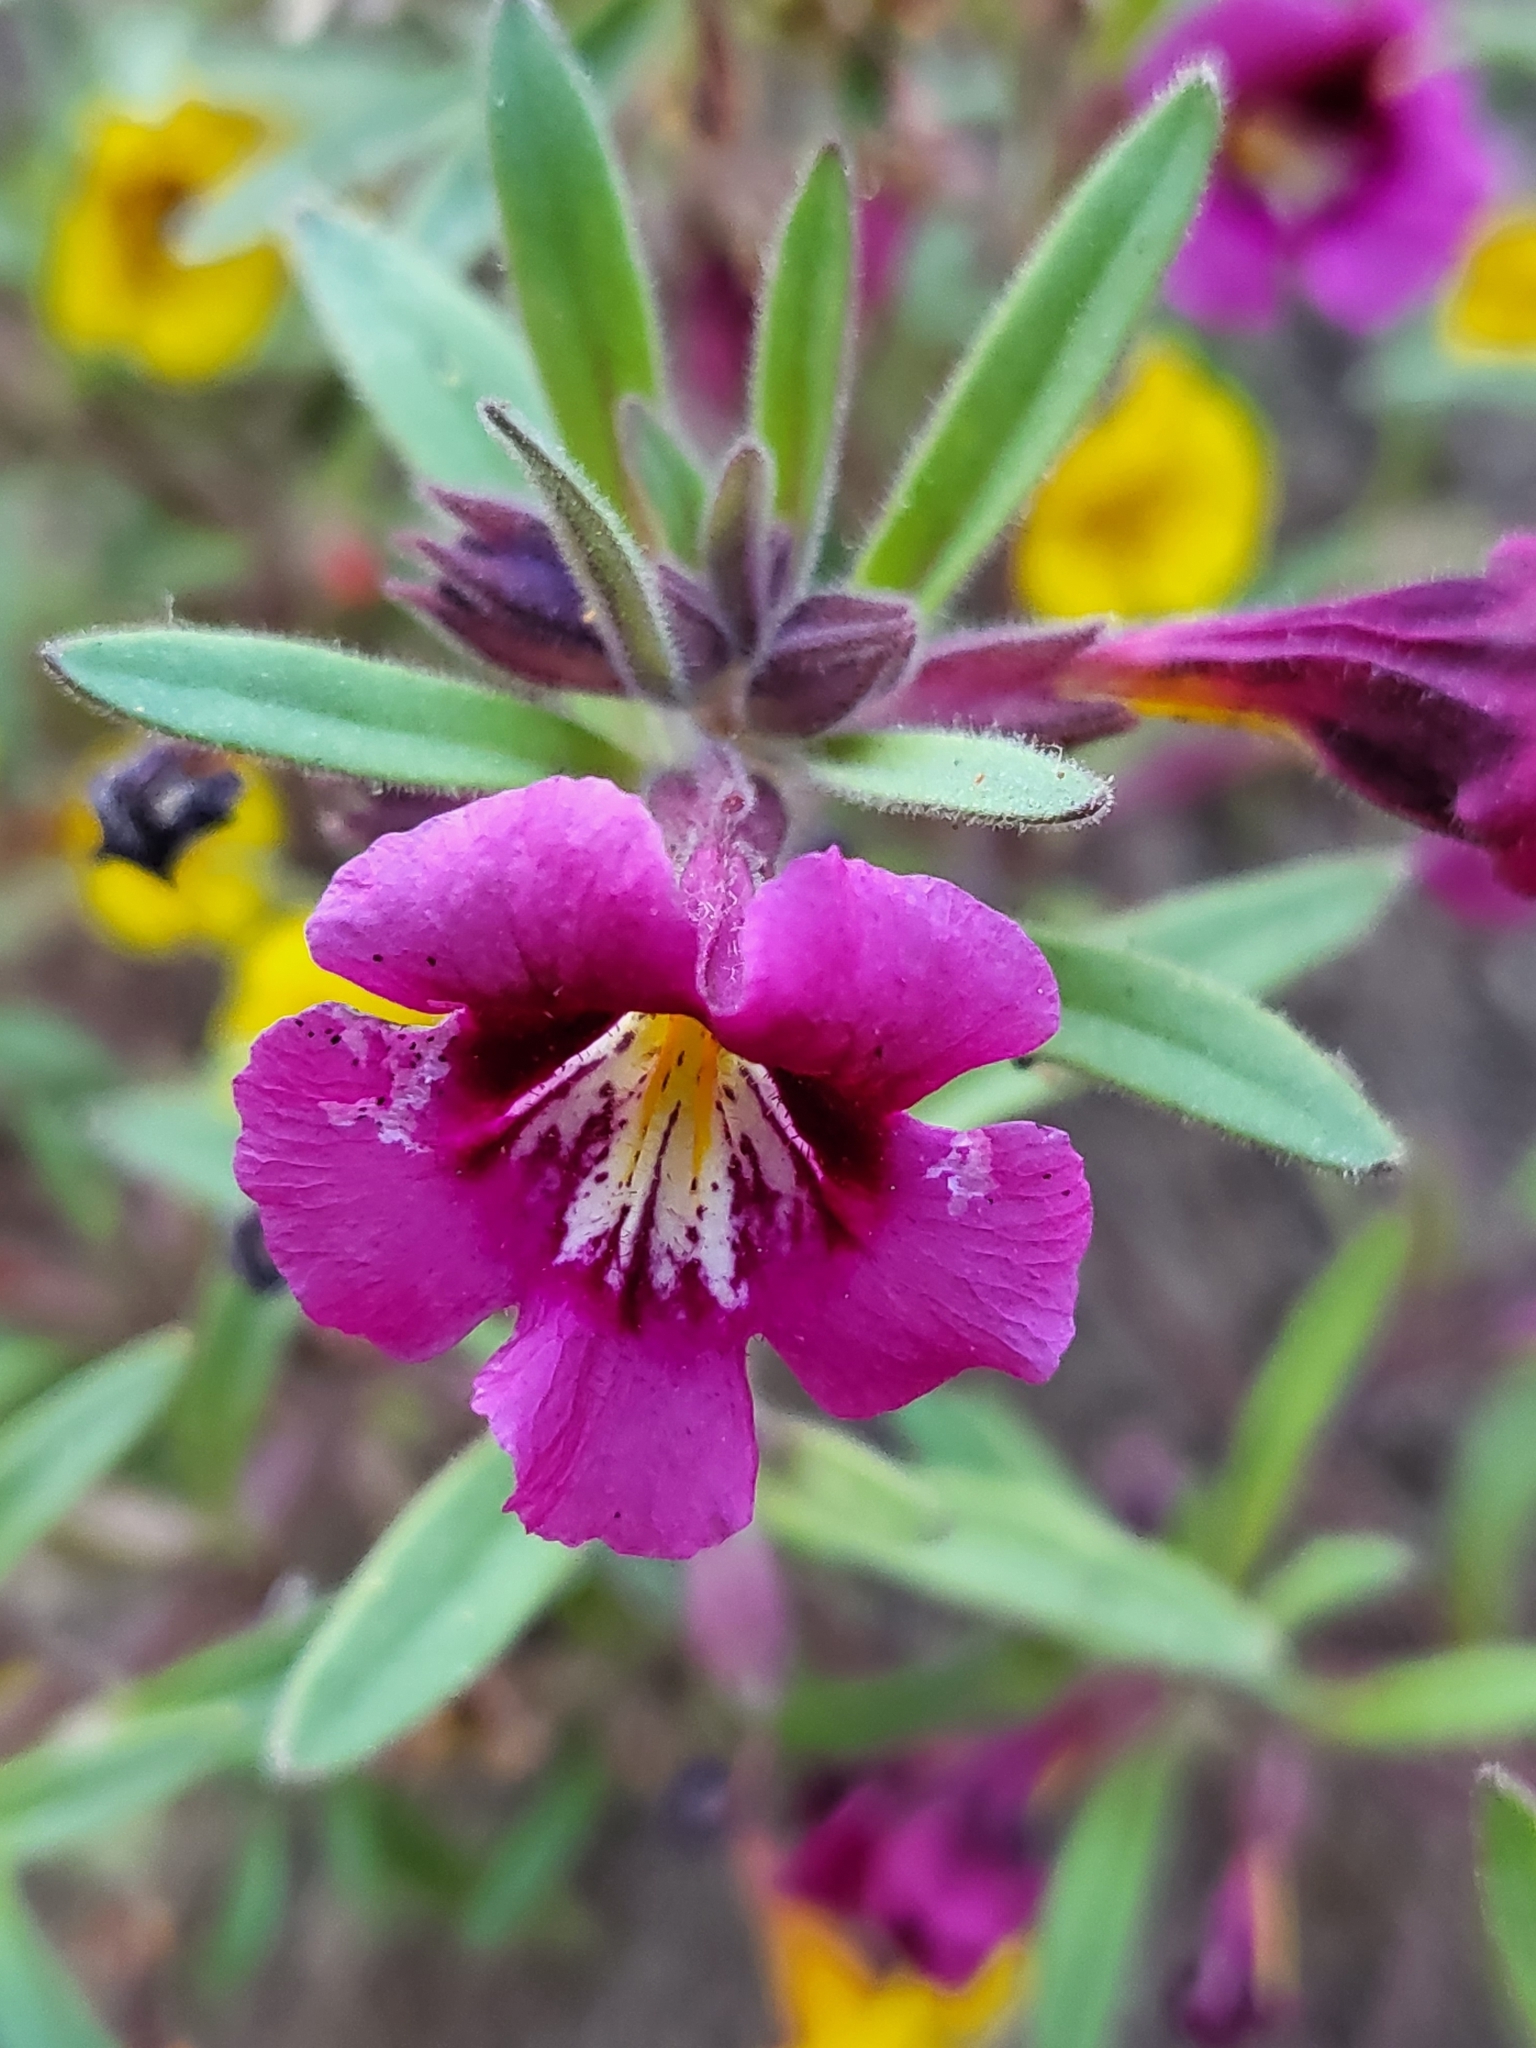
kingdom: Plantae
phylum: Tracheophyta
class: Magnoliopsida
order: Lamiales
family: Phrymaceae
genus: Diplacus
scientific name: Diplacus bicolor
